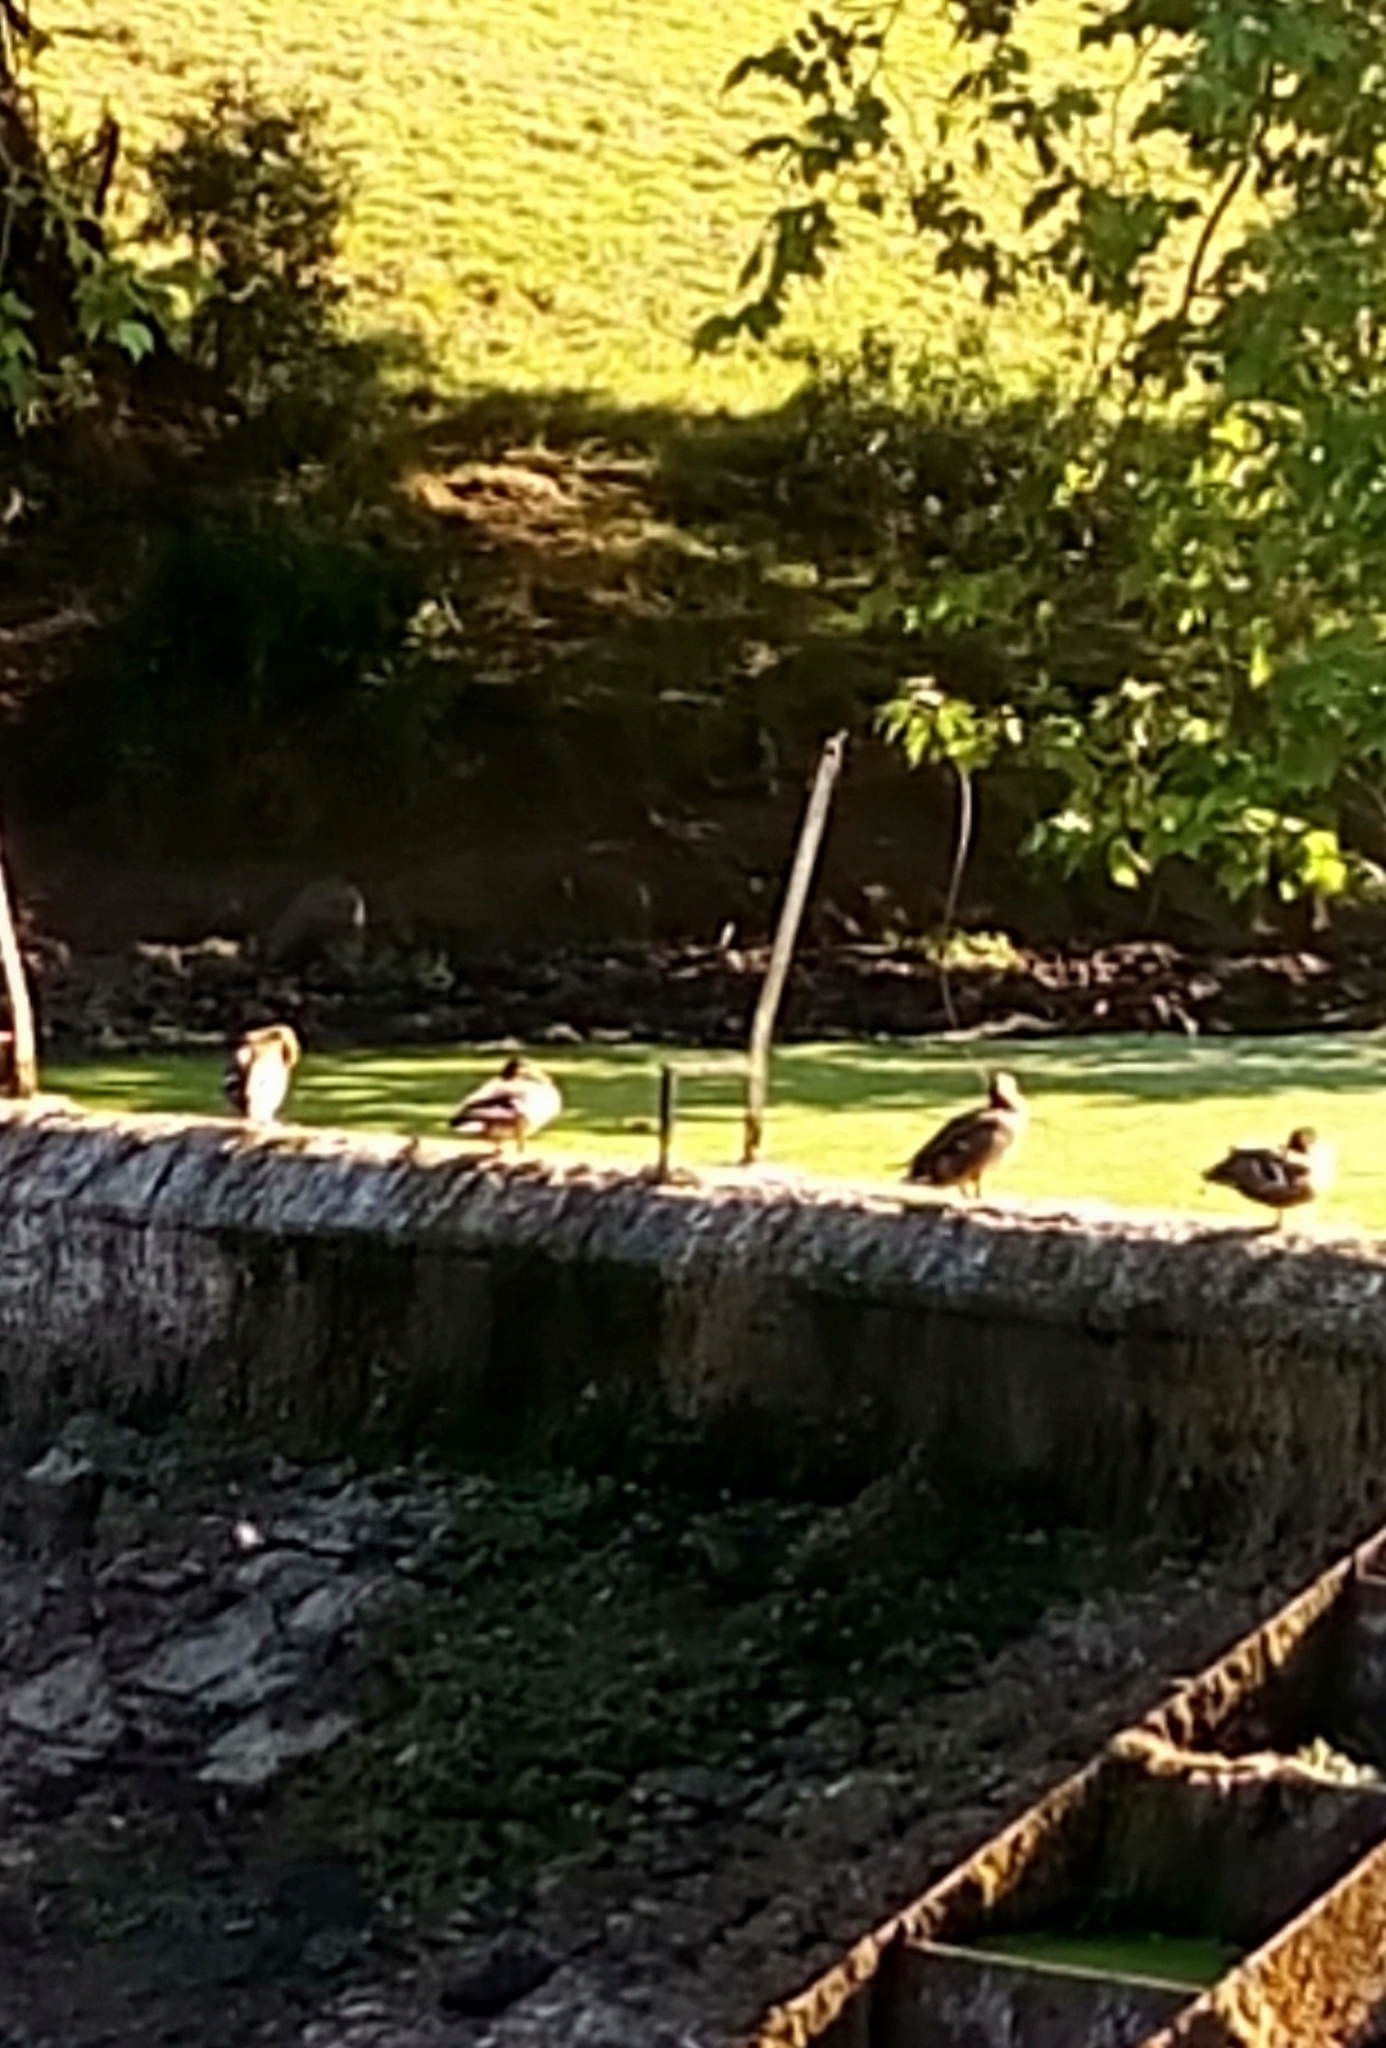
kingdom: Animalia
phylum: Chordata
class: Aves
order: Anseriformes
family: Anatidae
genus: Anas
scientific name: Anas platyrhynchos
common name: Mallard
